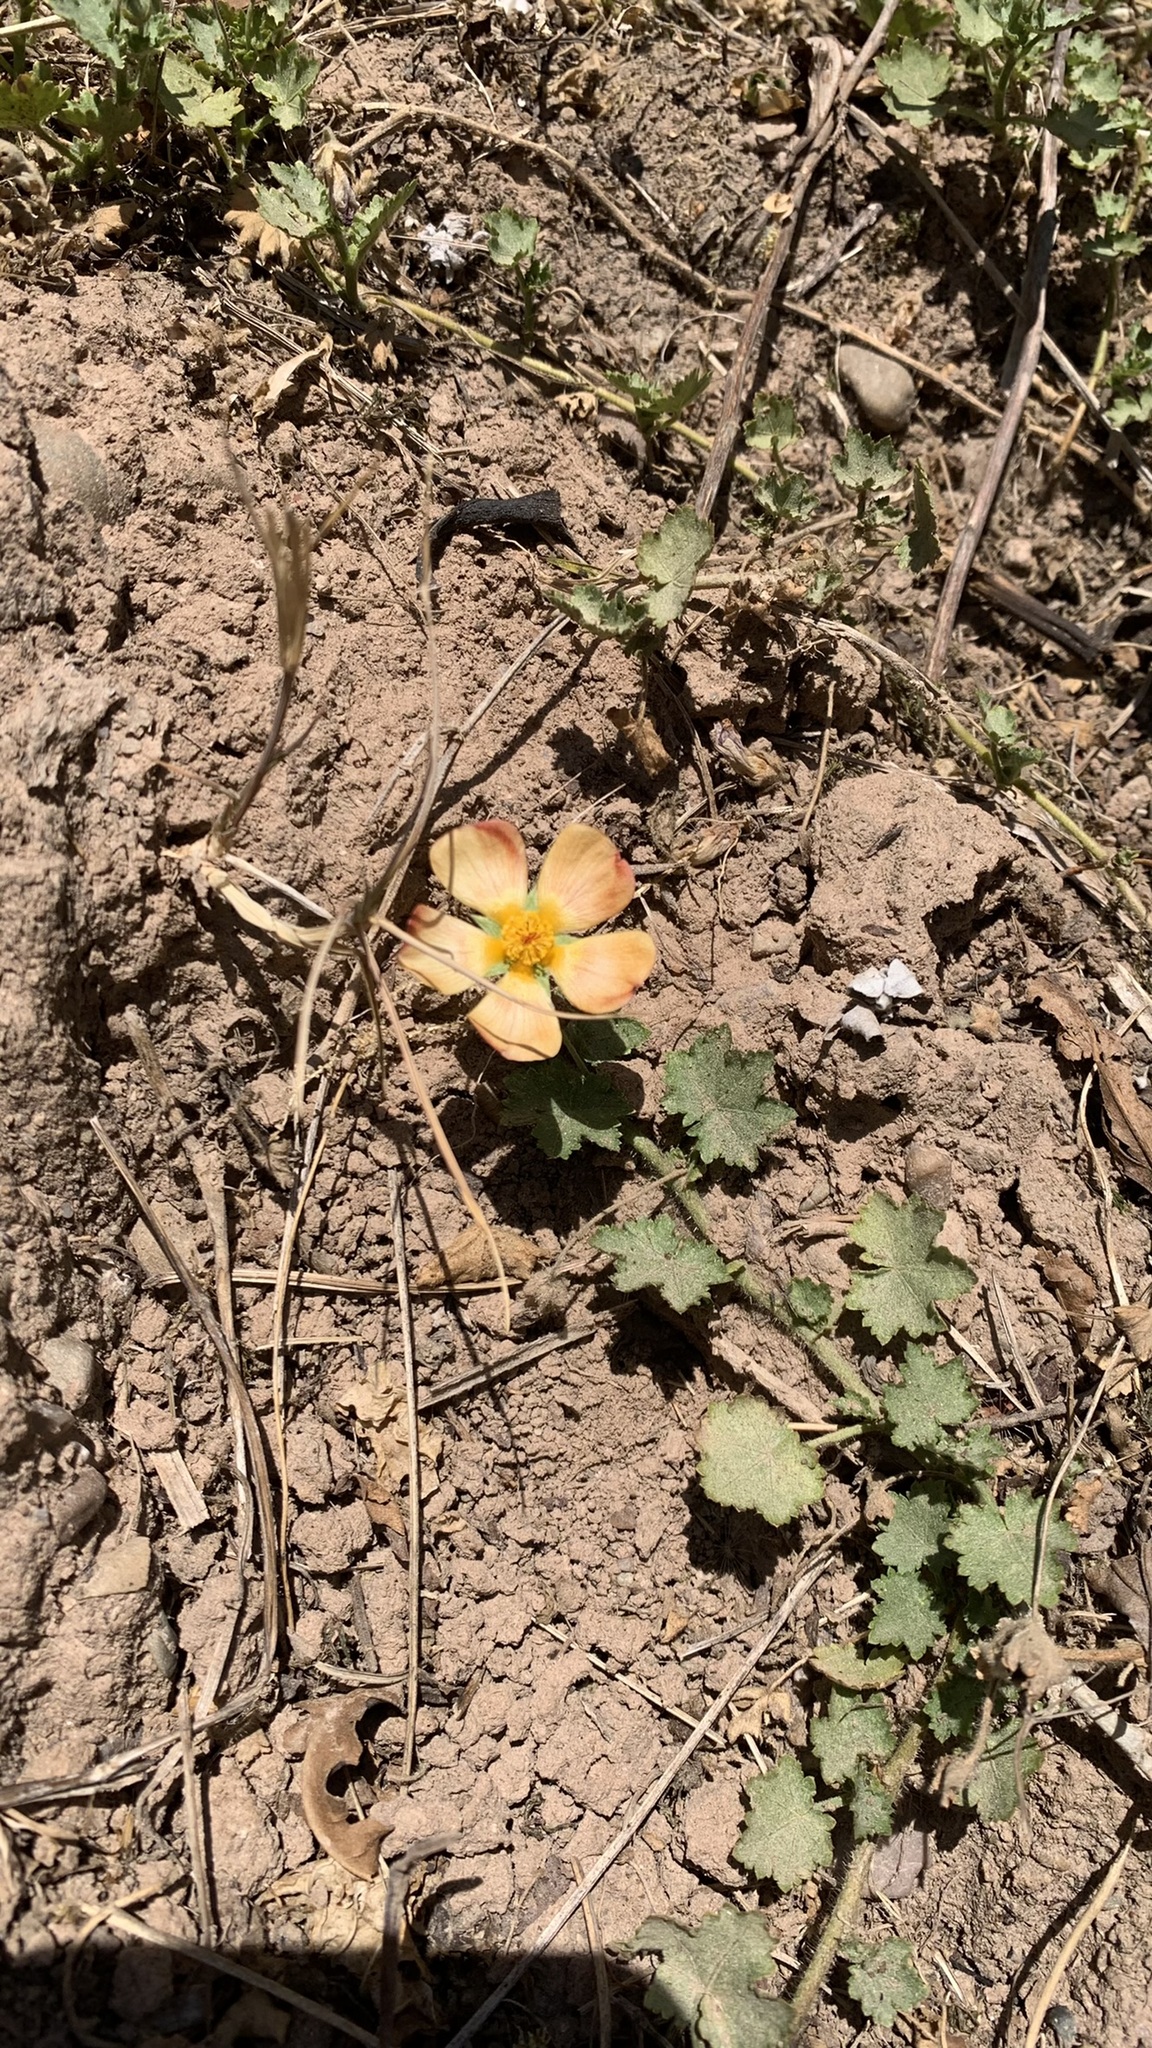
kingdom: Plantae
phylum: Tracheophyta
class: Magnoliopsida
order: Malvales
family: Malvaceae
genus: Modiolastrum
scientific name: Modiolastrum malvifolium
